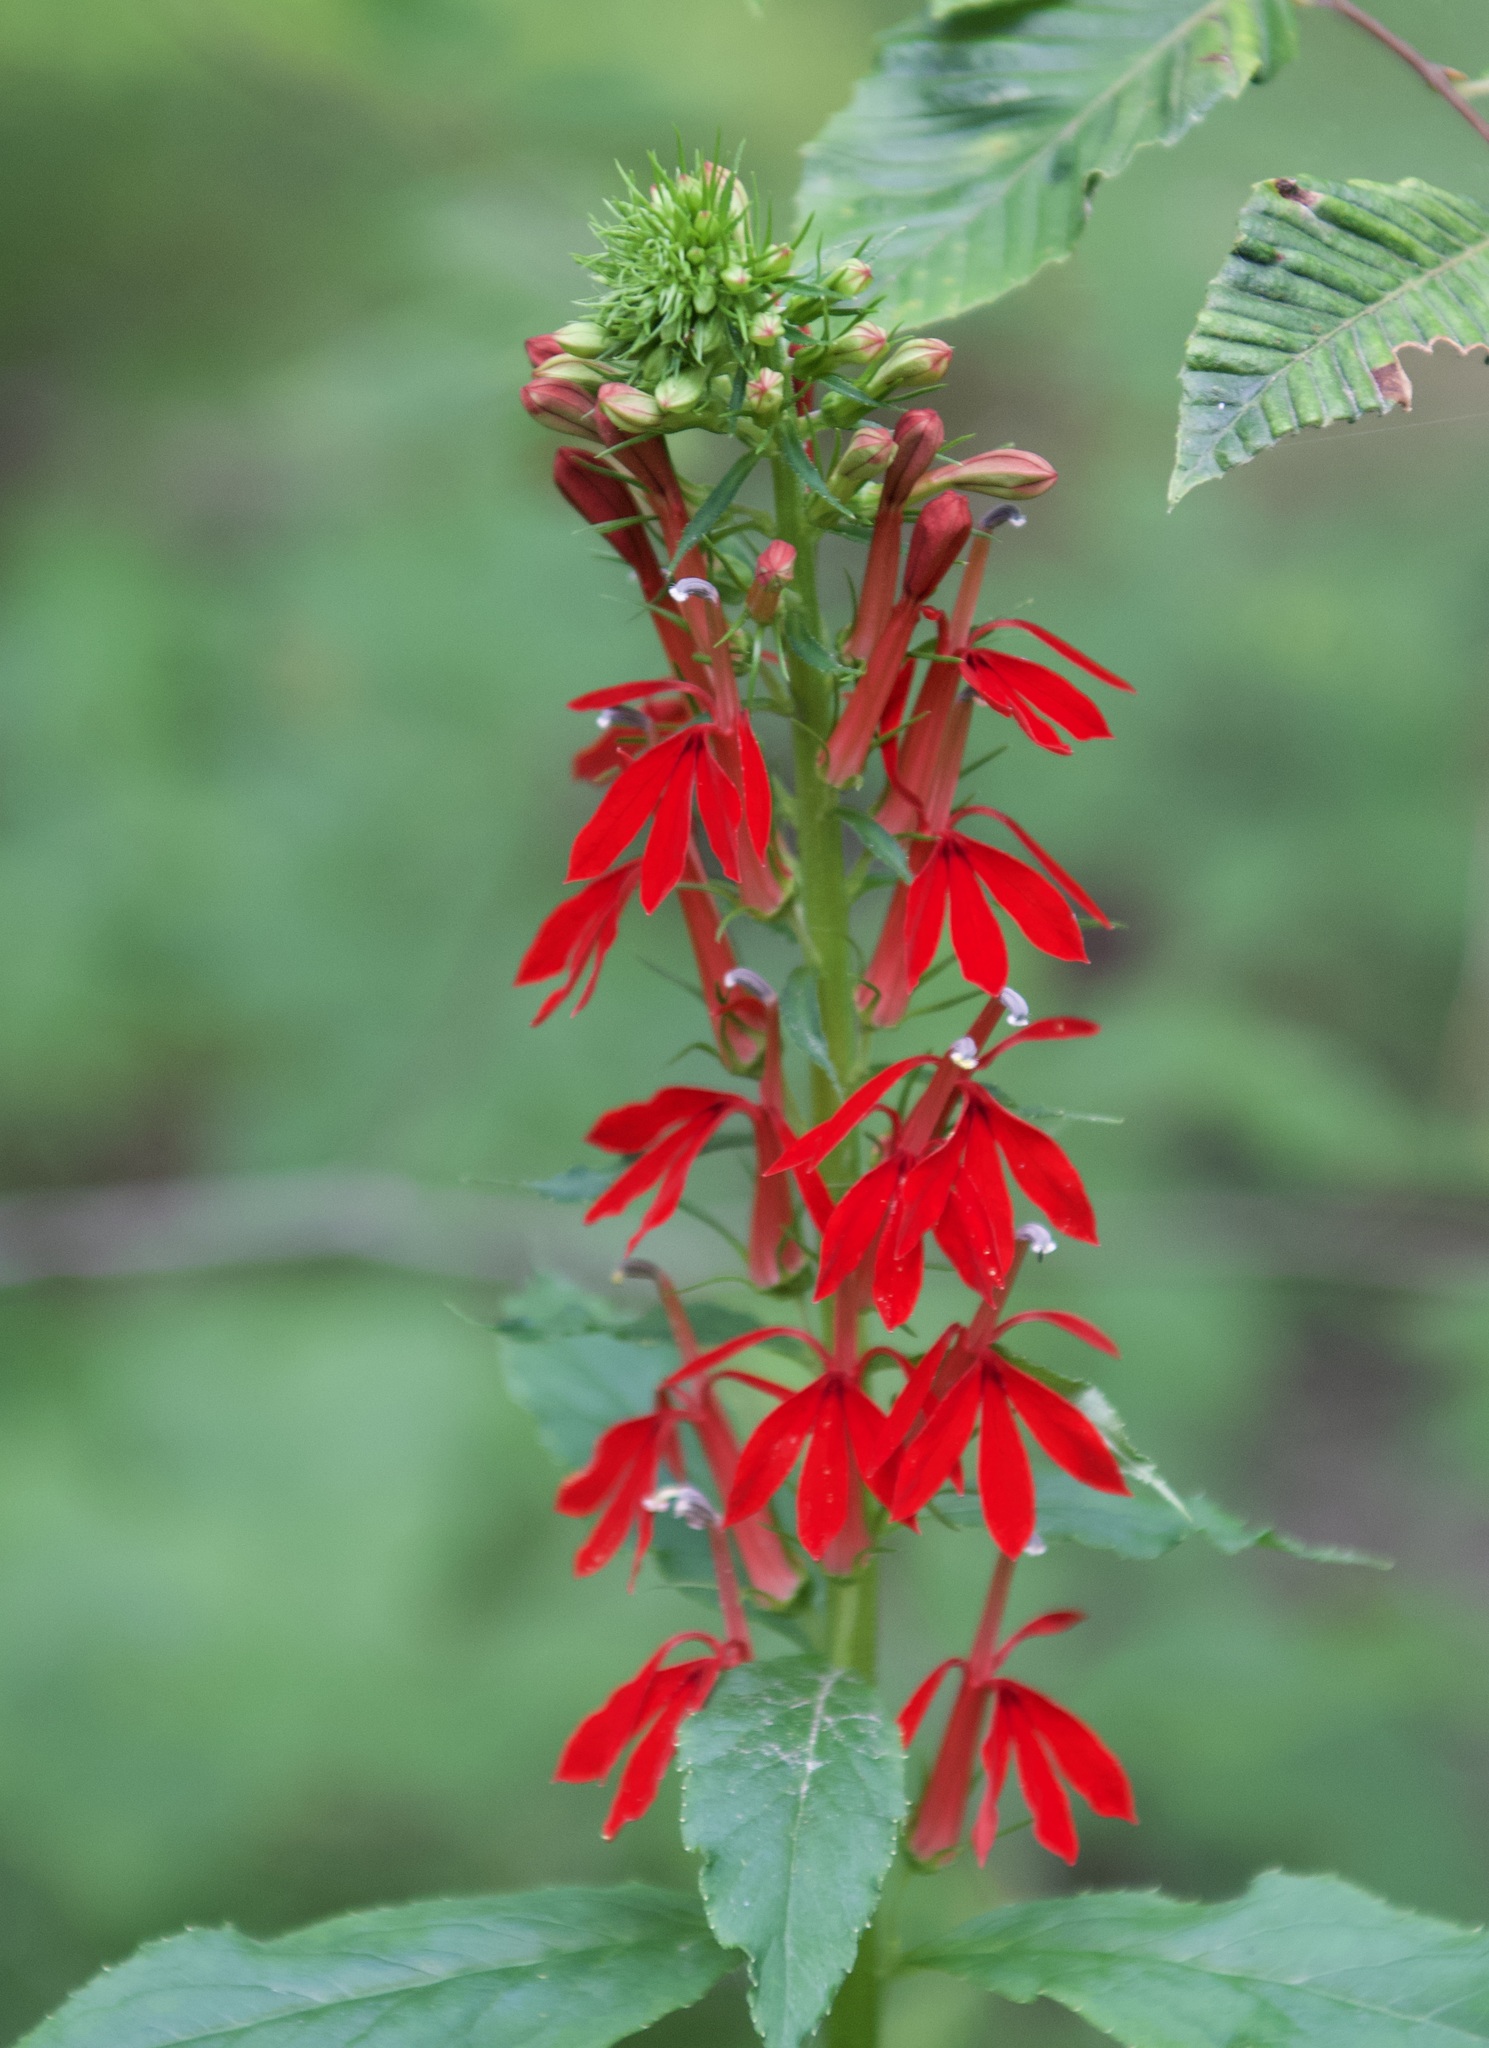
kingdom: Plantae
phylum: Tracheophyta
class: Magnoliopsida
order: Asterales
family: Campanulaceae
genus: Lobelia
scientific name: Lobelia cardinalis
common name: Cardinal flower
